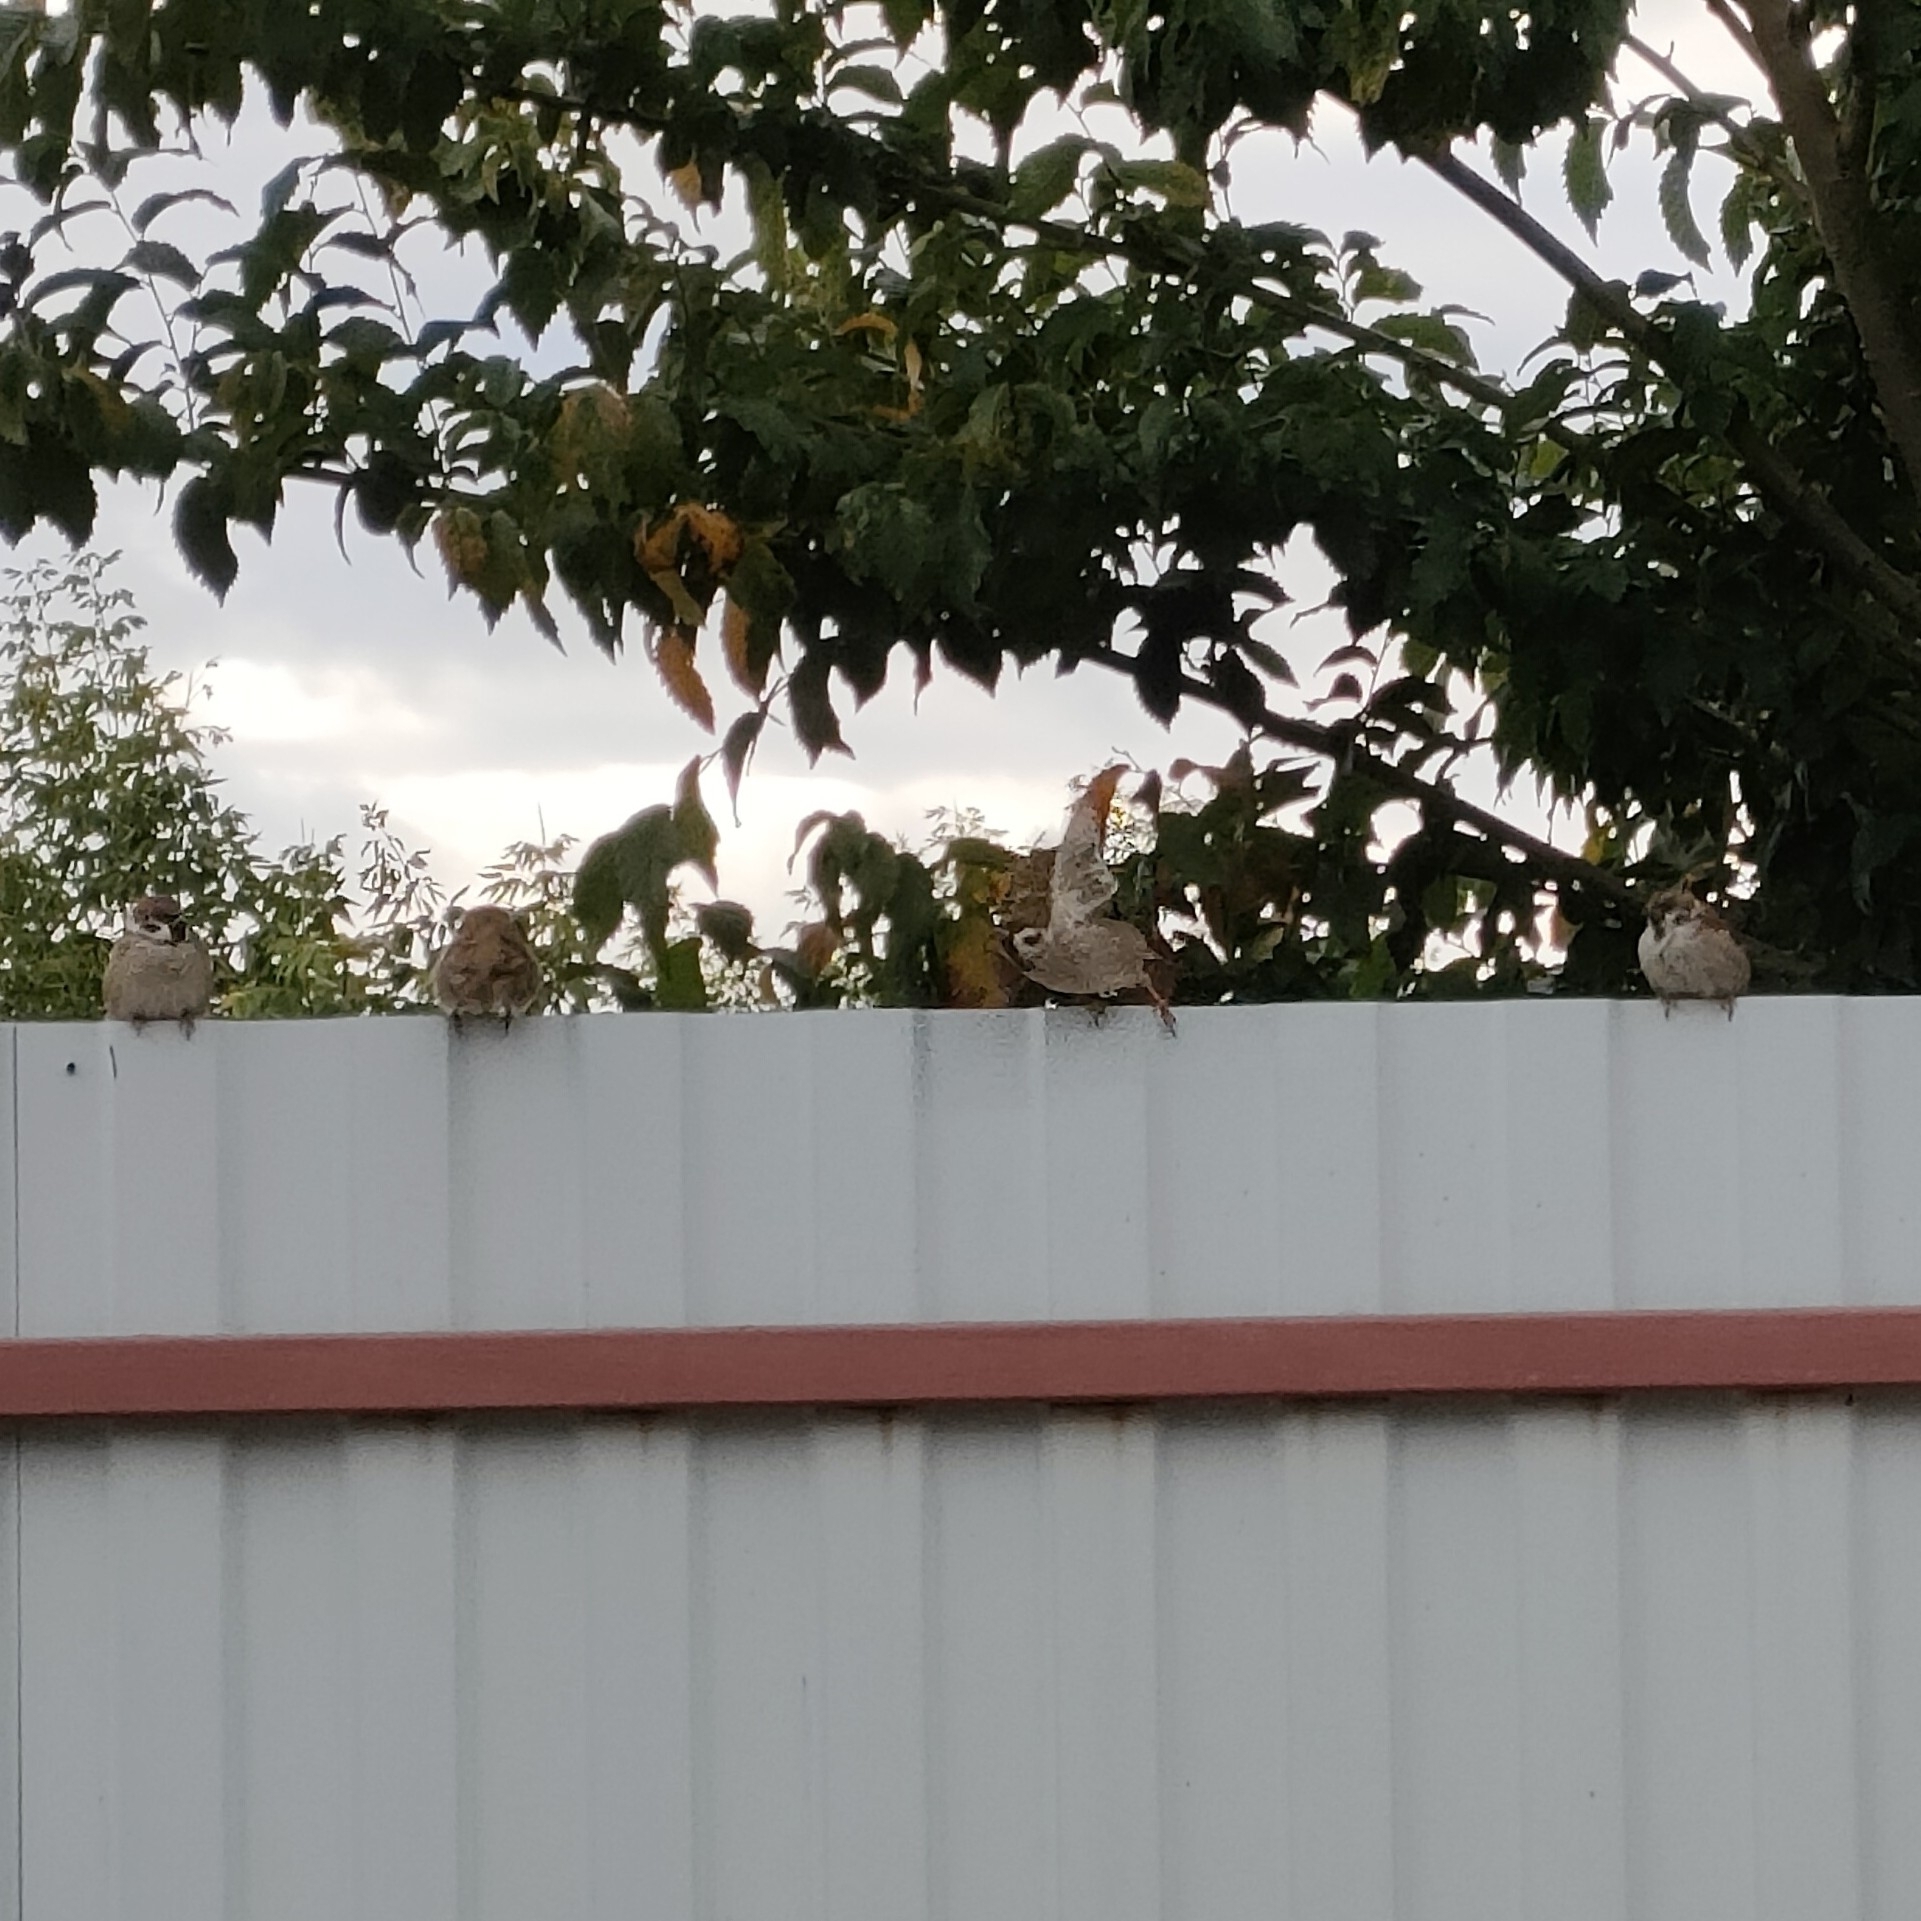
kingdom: Animalia
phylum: Chordata
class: Aves
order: Passeriformes
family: Passeridae
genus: Passer
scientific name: Passer montanus
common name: Eurasian tree sparrow
